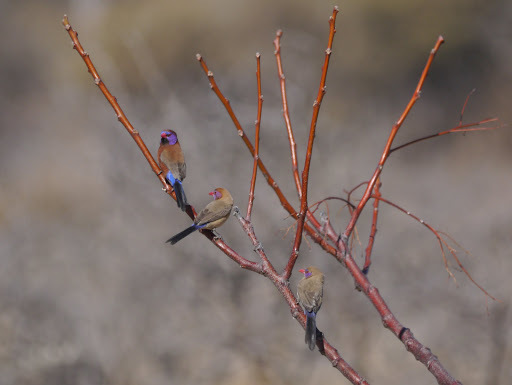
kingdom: Animalia
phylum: Chordata
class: Aves
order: Passeriformes
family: Estrildidae
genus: Uraeginthus
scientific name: Uraeginthus granatinus
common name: Violet-eared waxbill
